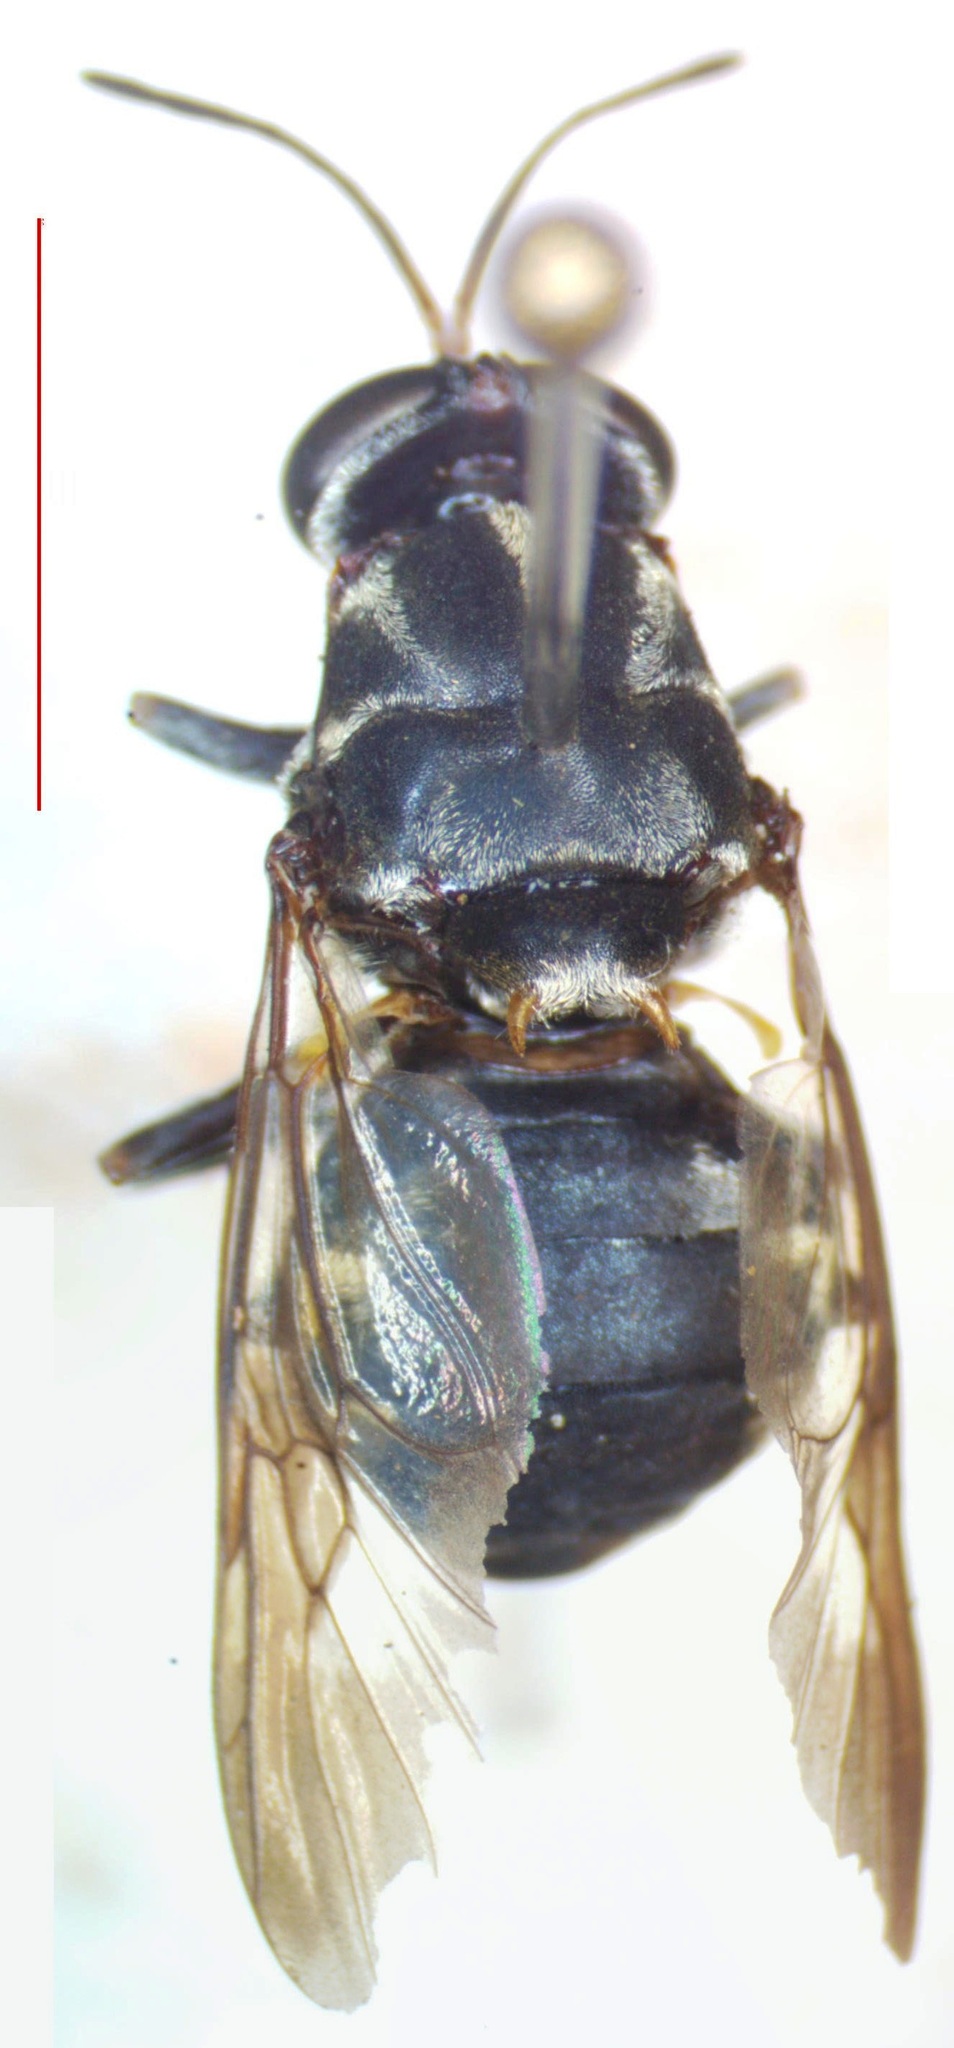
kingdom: Animalia
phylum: Arthropoda
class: Insecta
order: Diptera
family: Stratiomyidae
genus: Cyphomyia
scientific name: Cyphomyia albitarsis
